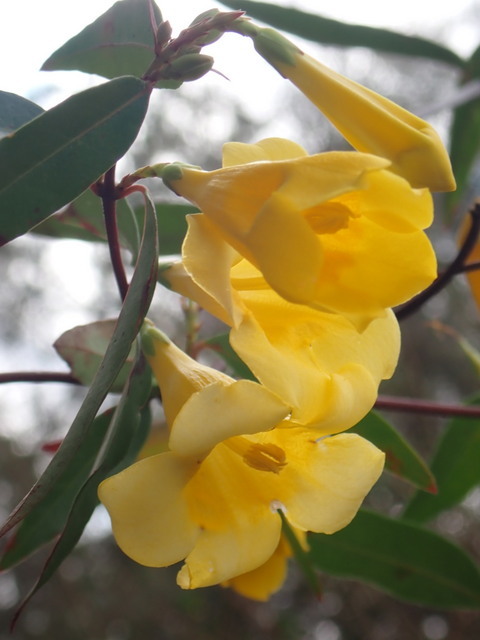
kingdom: Plantae
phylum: Tracheophyta
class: Magnoliopsida
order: Gentianales
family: Gelsemiaceae
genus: Gelsemium
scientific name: Gelsemium sempervirens
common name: Carolina-jasmine
